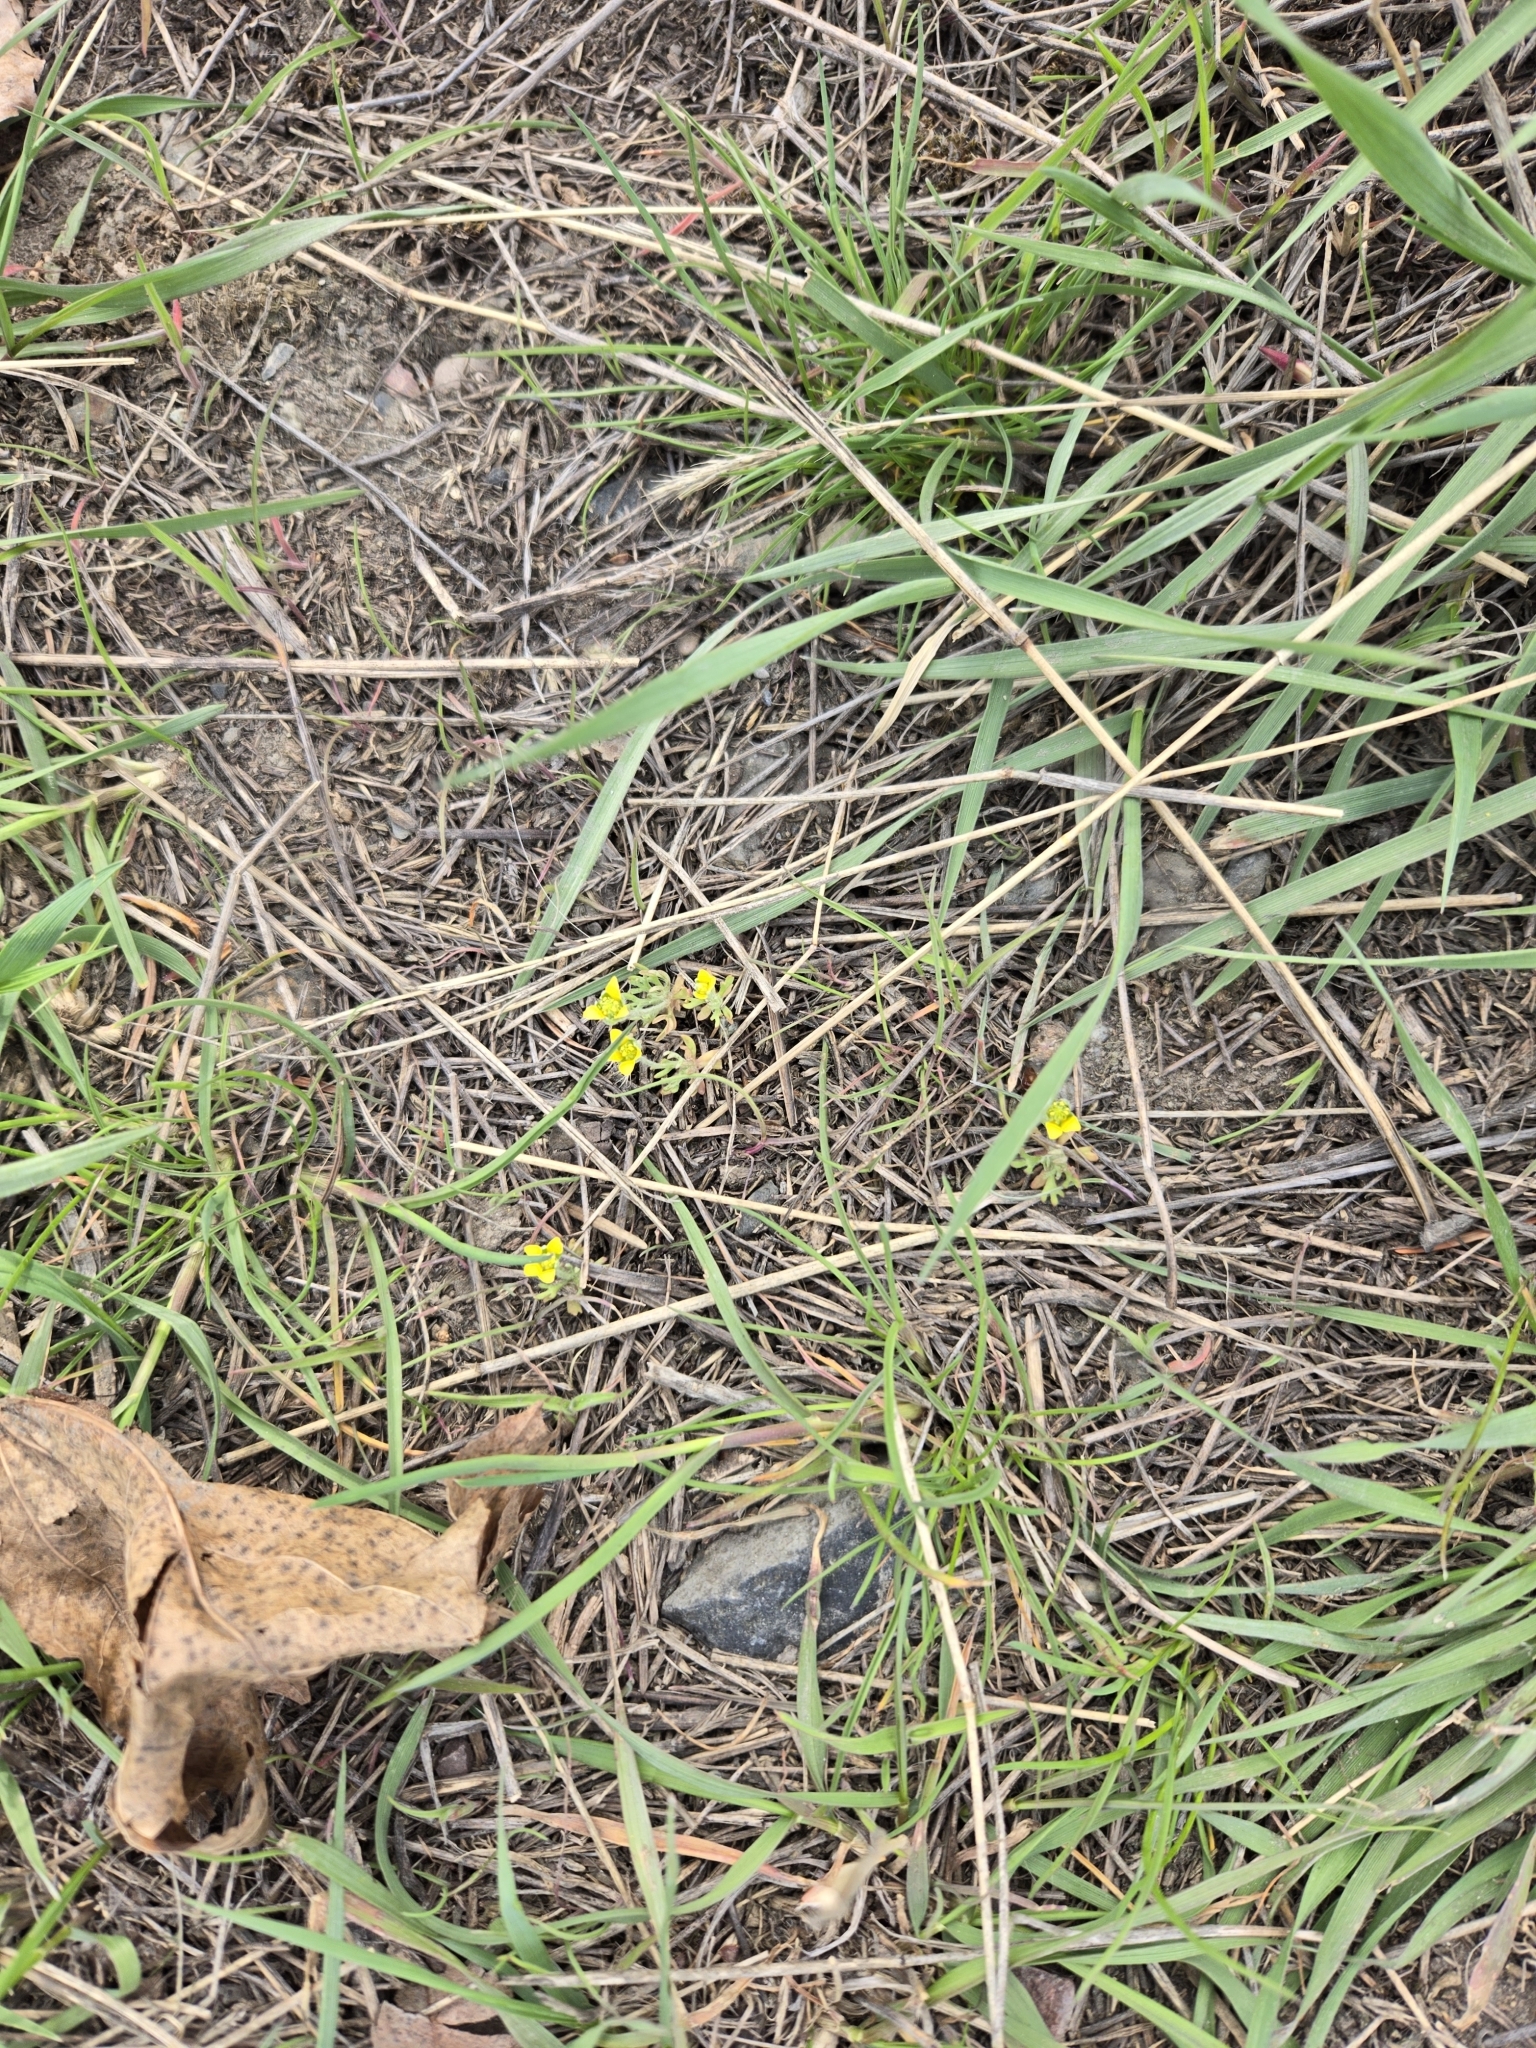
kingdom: Plantae
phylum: Tracheophyta
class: Magnoliopsida
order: Ranunculales
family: Ranunculaceae
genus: Ceratocephala
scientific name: Ceratocephala orthoceras
